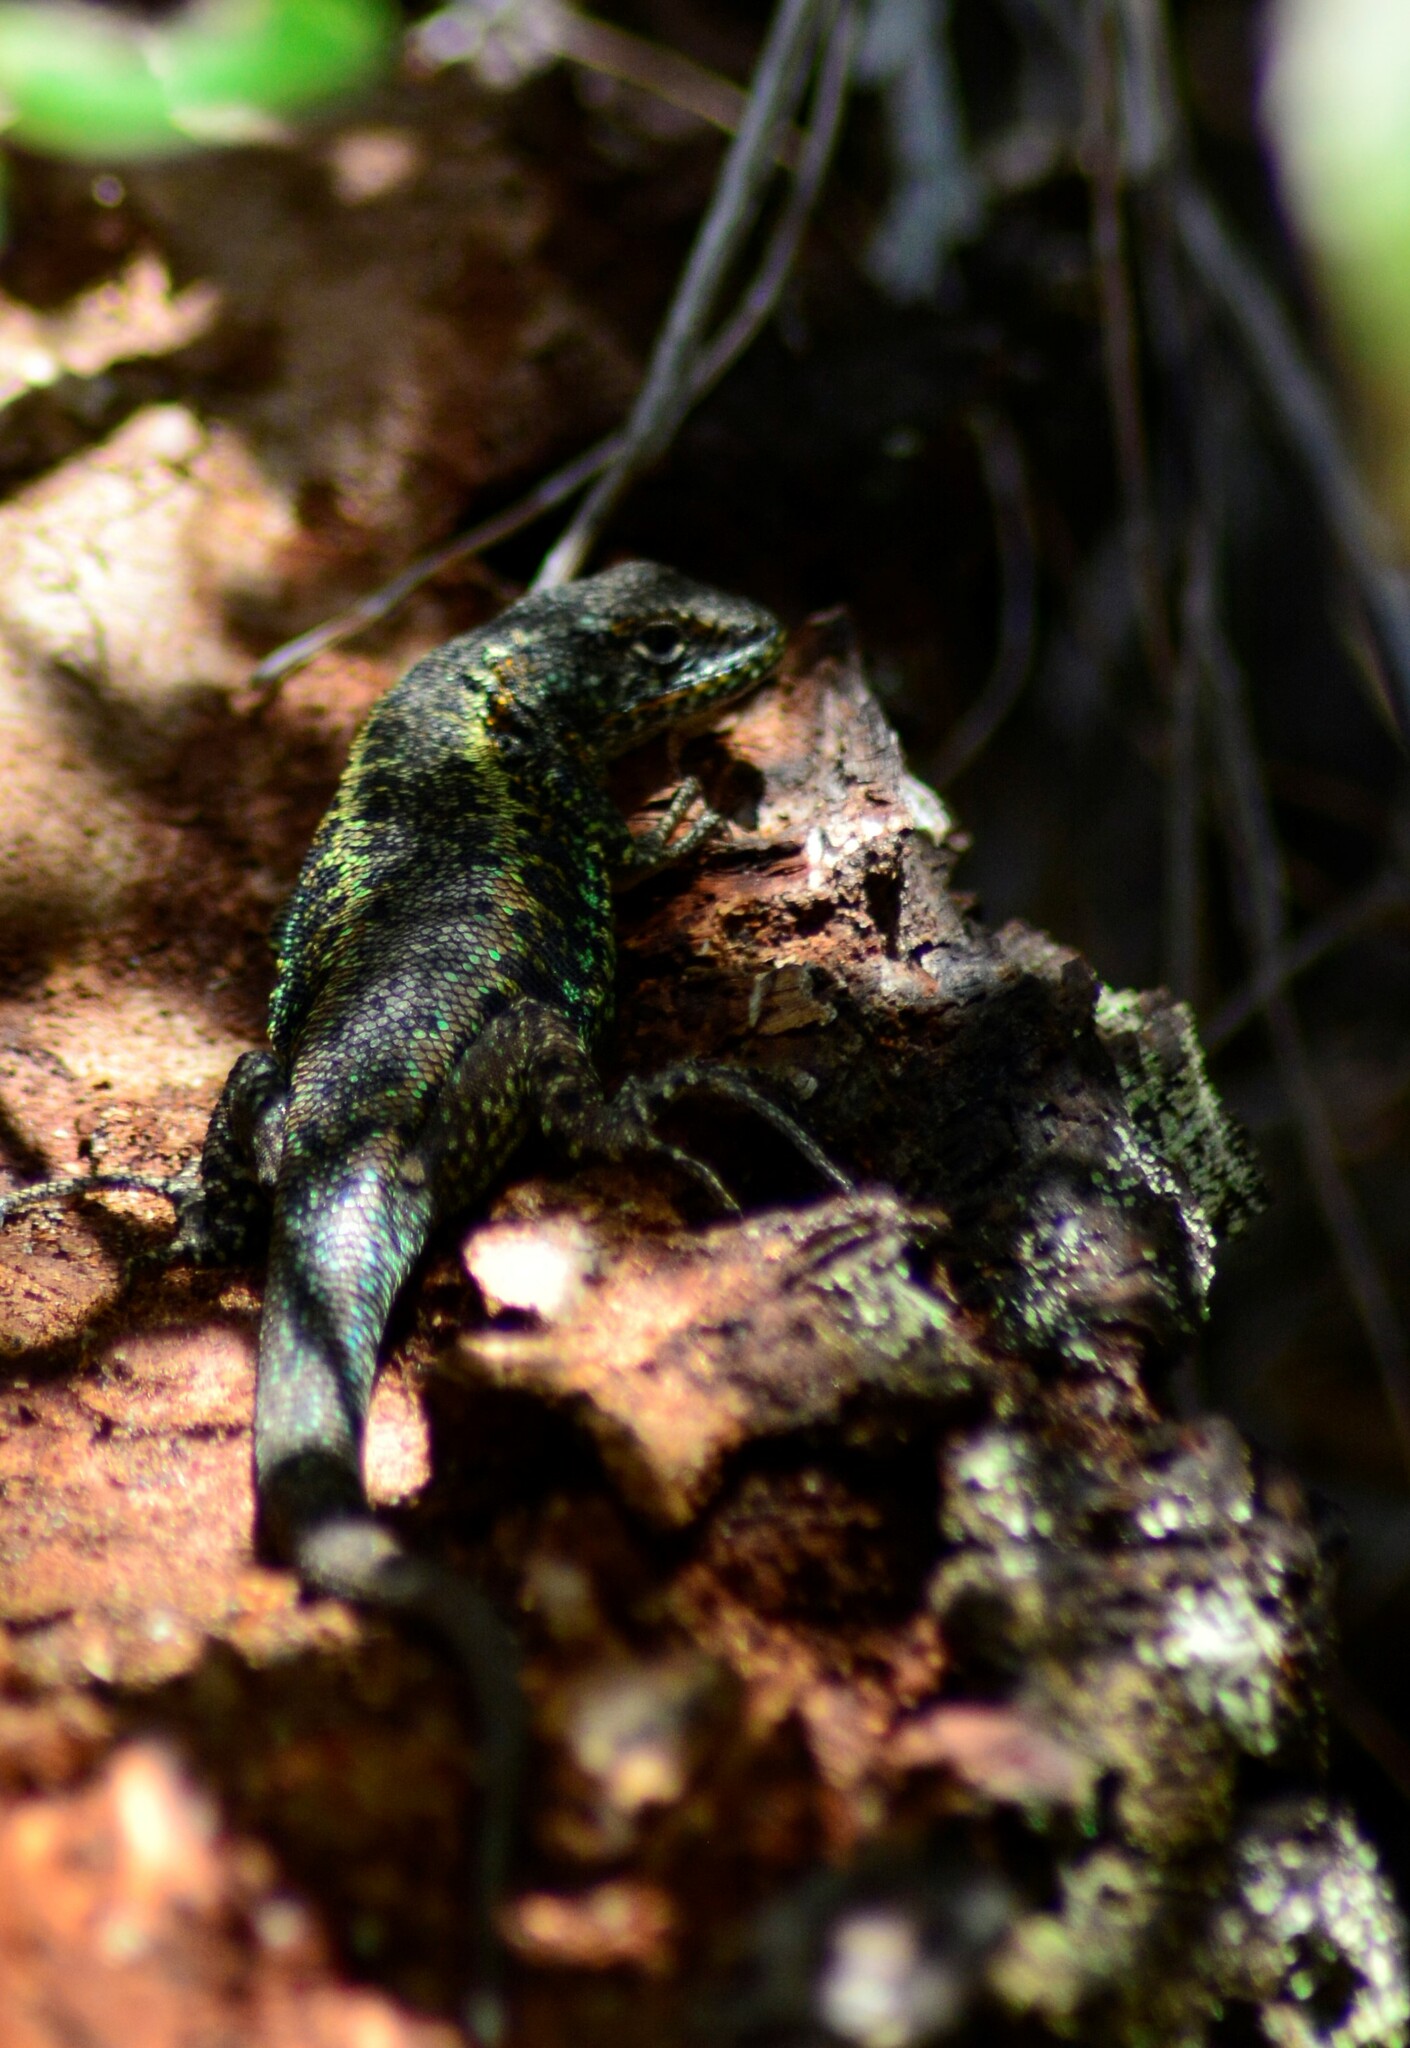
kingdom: Animalia
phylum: Chordata
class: Squamata
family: Liolaemidae
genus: Liolaemus
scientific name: Liolaemus pictus
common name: Painted tree iguana
